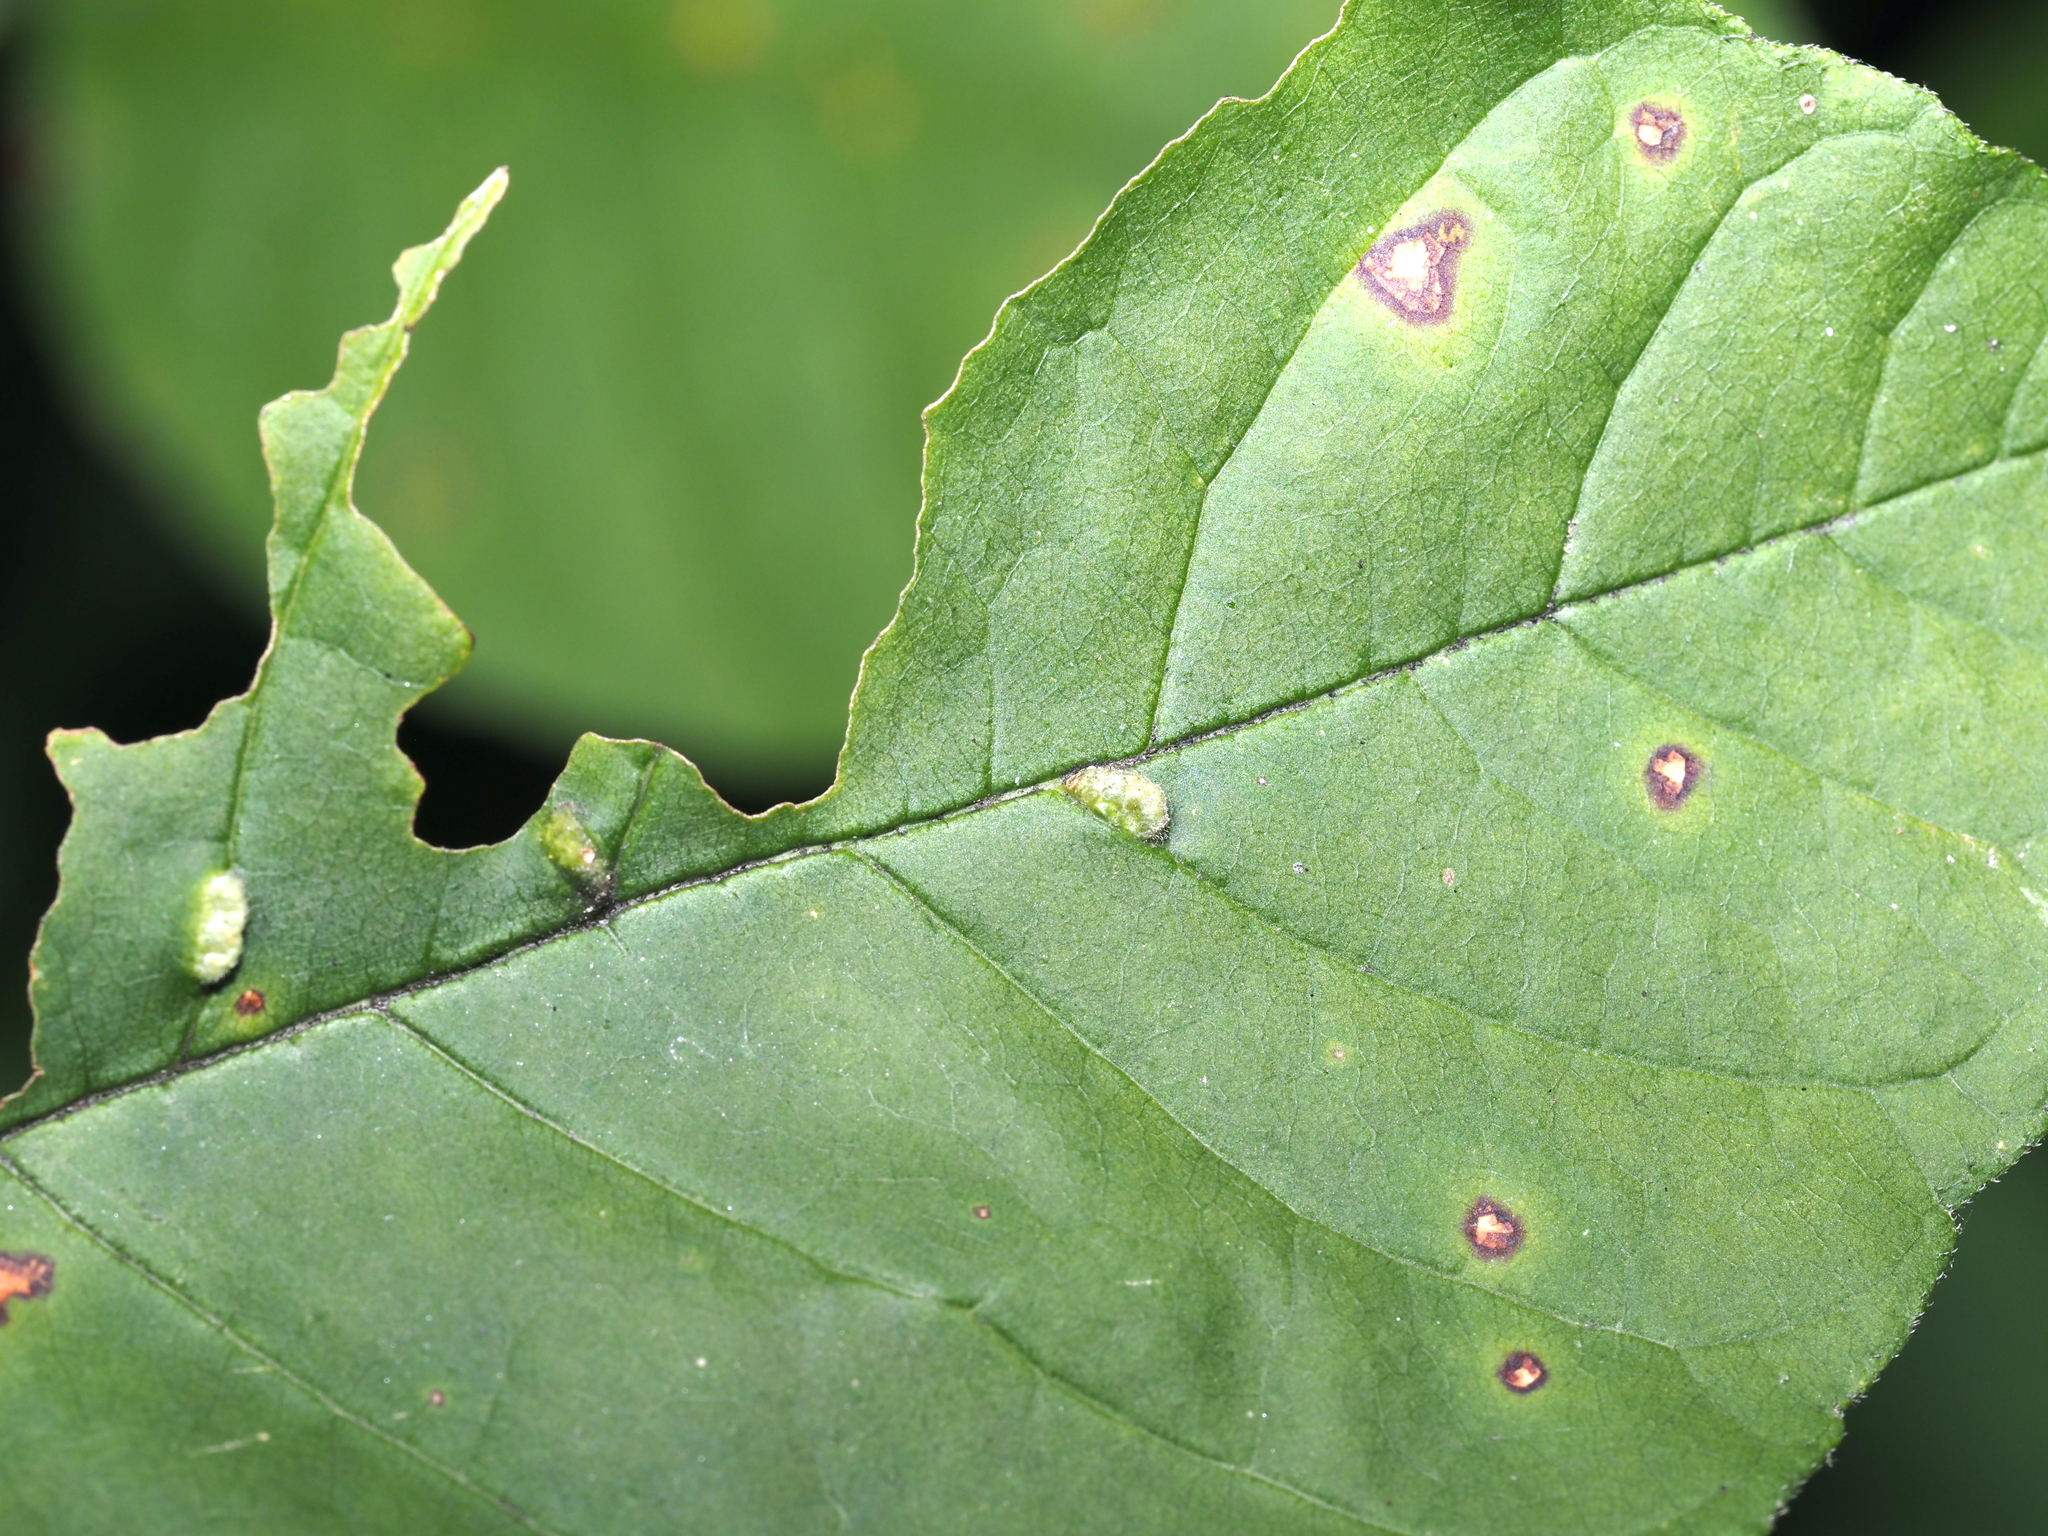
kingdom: Animalia
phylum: Arthropoda
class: Arachnida
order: Trombidiformes
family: Eriophyidae
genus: Aceria
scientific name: Aceria fraxinicola
